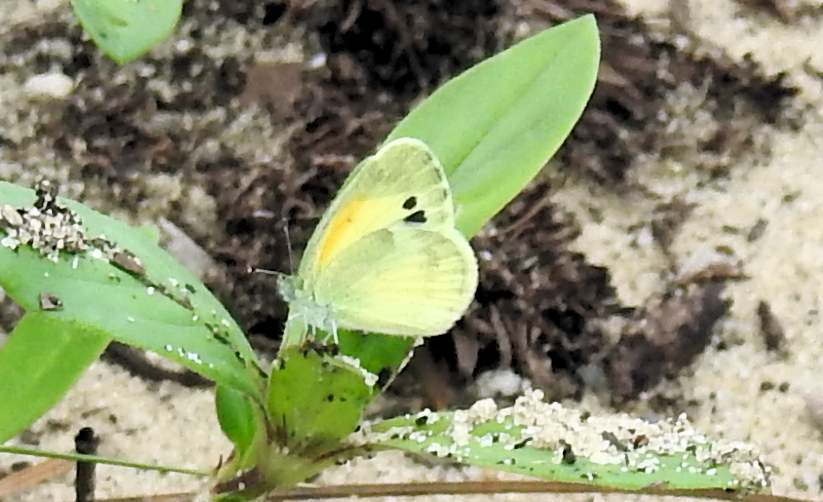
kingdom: Animalia
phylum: Arthropoda
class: Insecta
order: Lepidoptera
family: Pieridae
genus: Nathalis
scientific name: Nathalis iole
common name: Dainty sulphur
